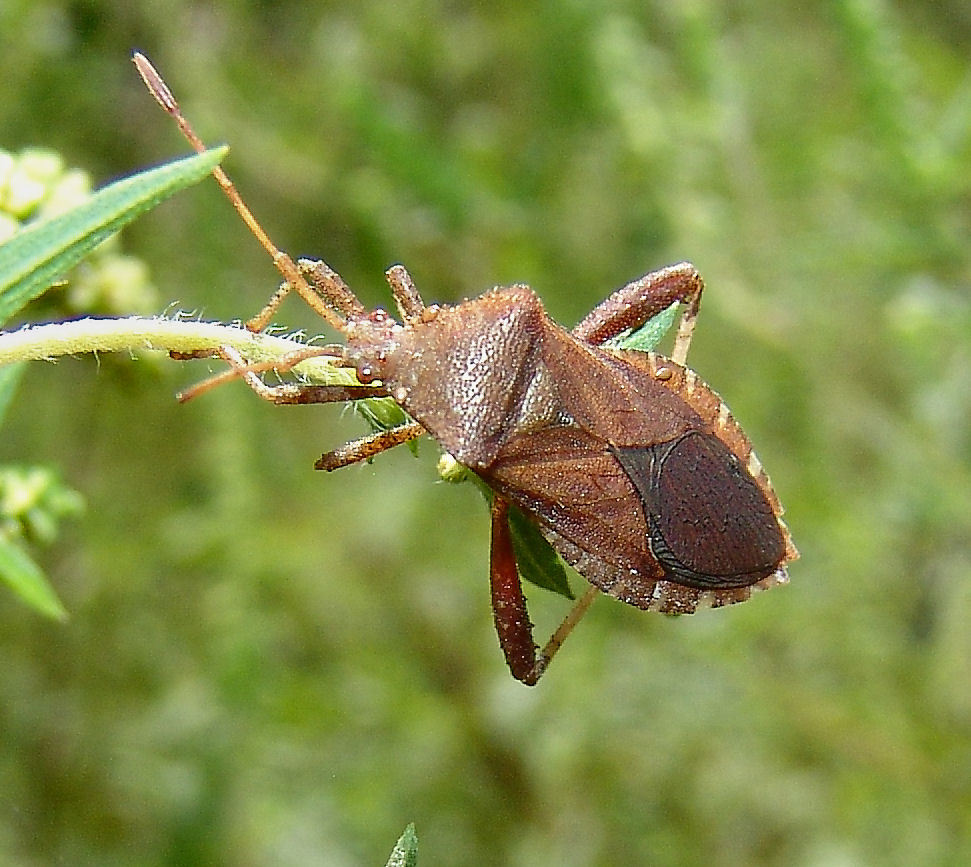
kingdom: Animalia
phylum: Arthropoda
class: Insecta
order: Hemiptera
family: Coreidae
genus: Euthochtha
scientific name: Euthochtha galeator
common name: Helmeted squash bug
